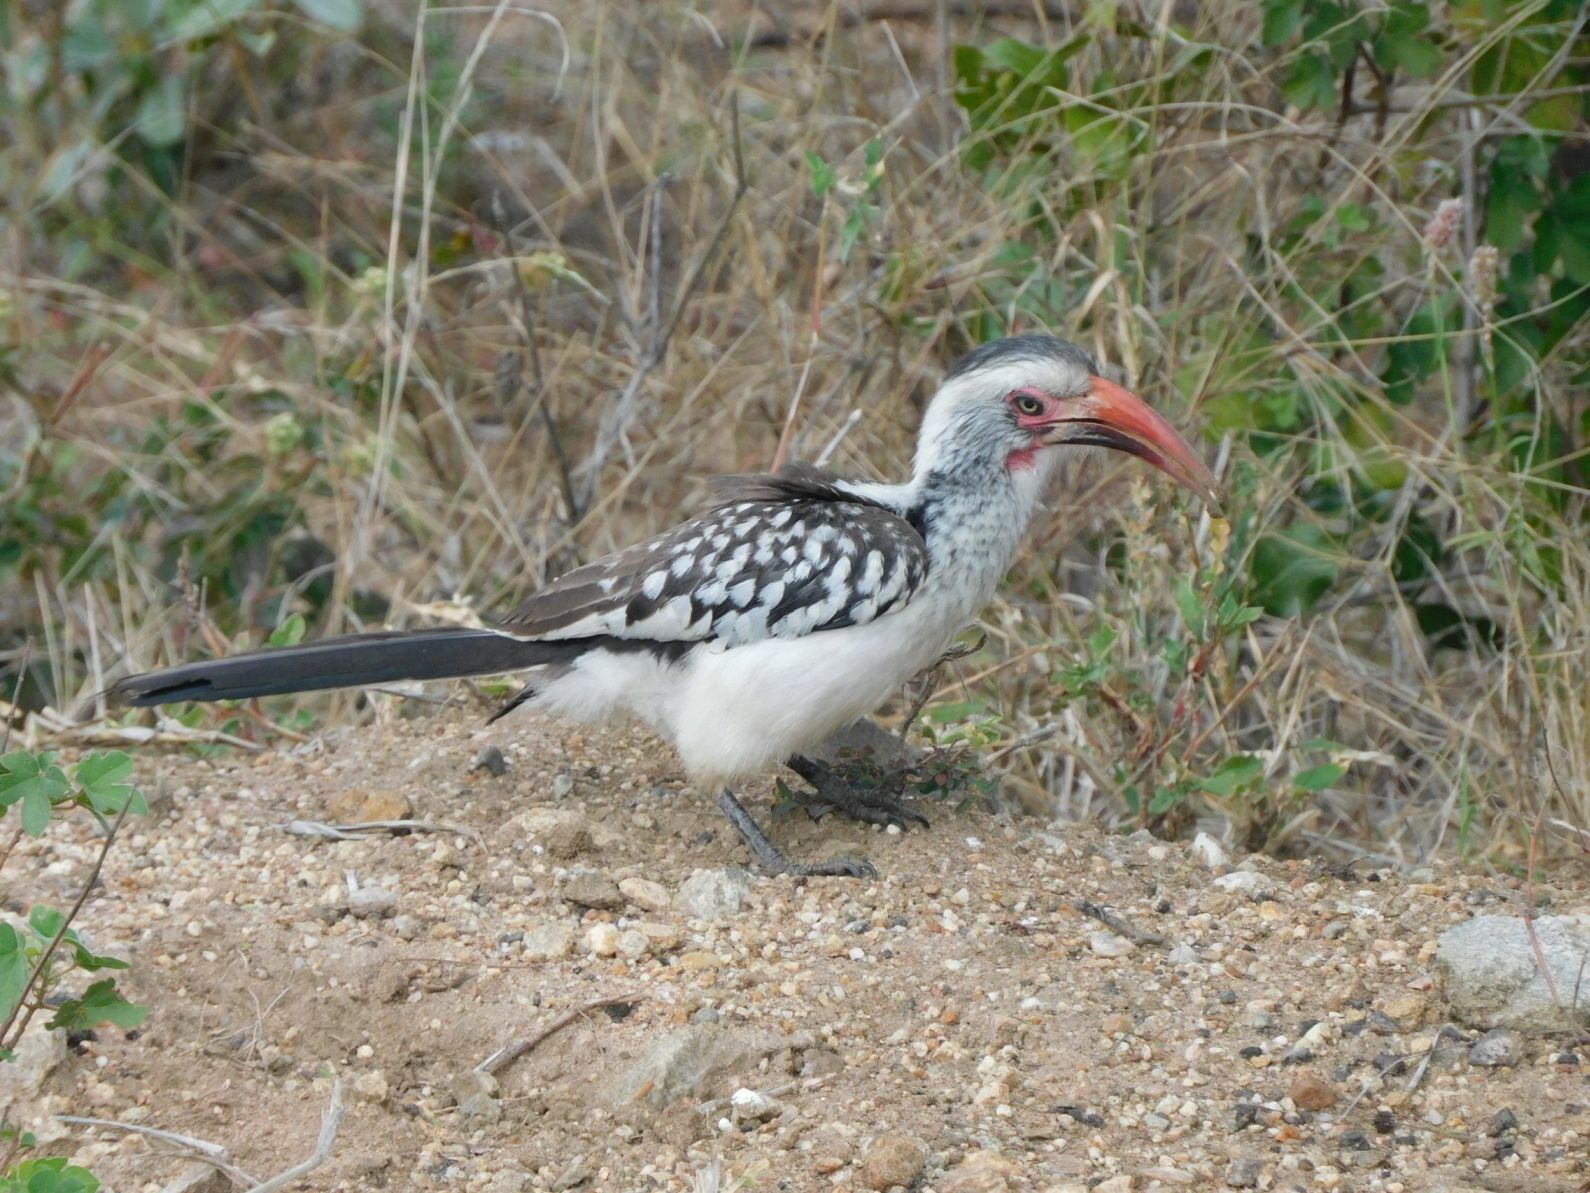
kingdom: Animalia
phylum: Chordata
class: Aves
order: Bucerotiformes
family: Bucerotidae
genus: Tockus
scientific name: Tockus rufirostris
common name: Southern red-billed hornbill
